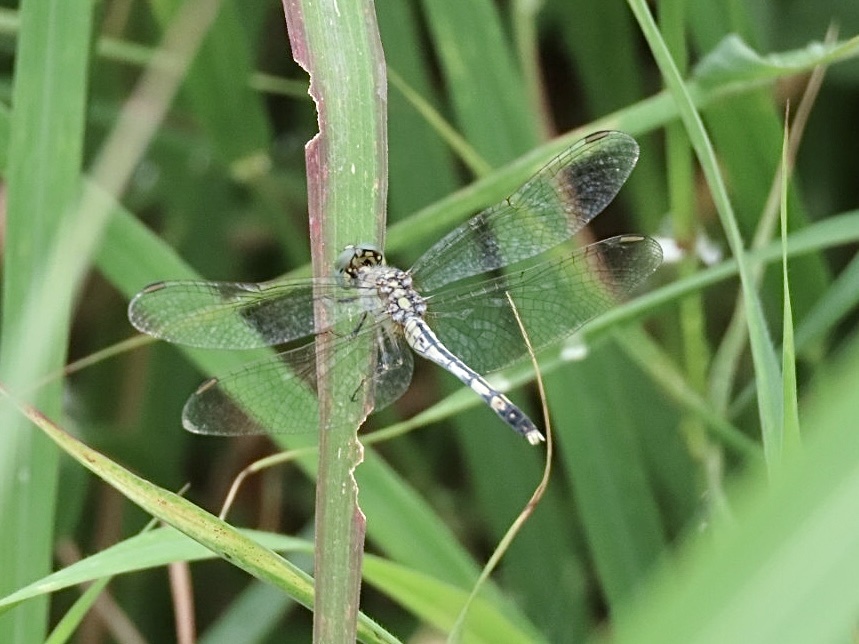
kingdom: Animalia
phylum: Arthropoda
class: Insecta
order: Odonata
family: Libellulidae
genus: Diplacodes
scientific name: Diplacodes trivialis
